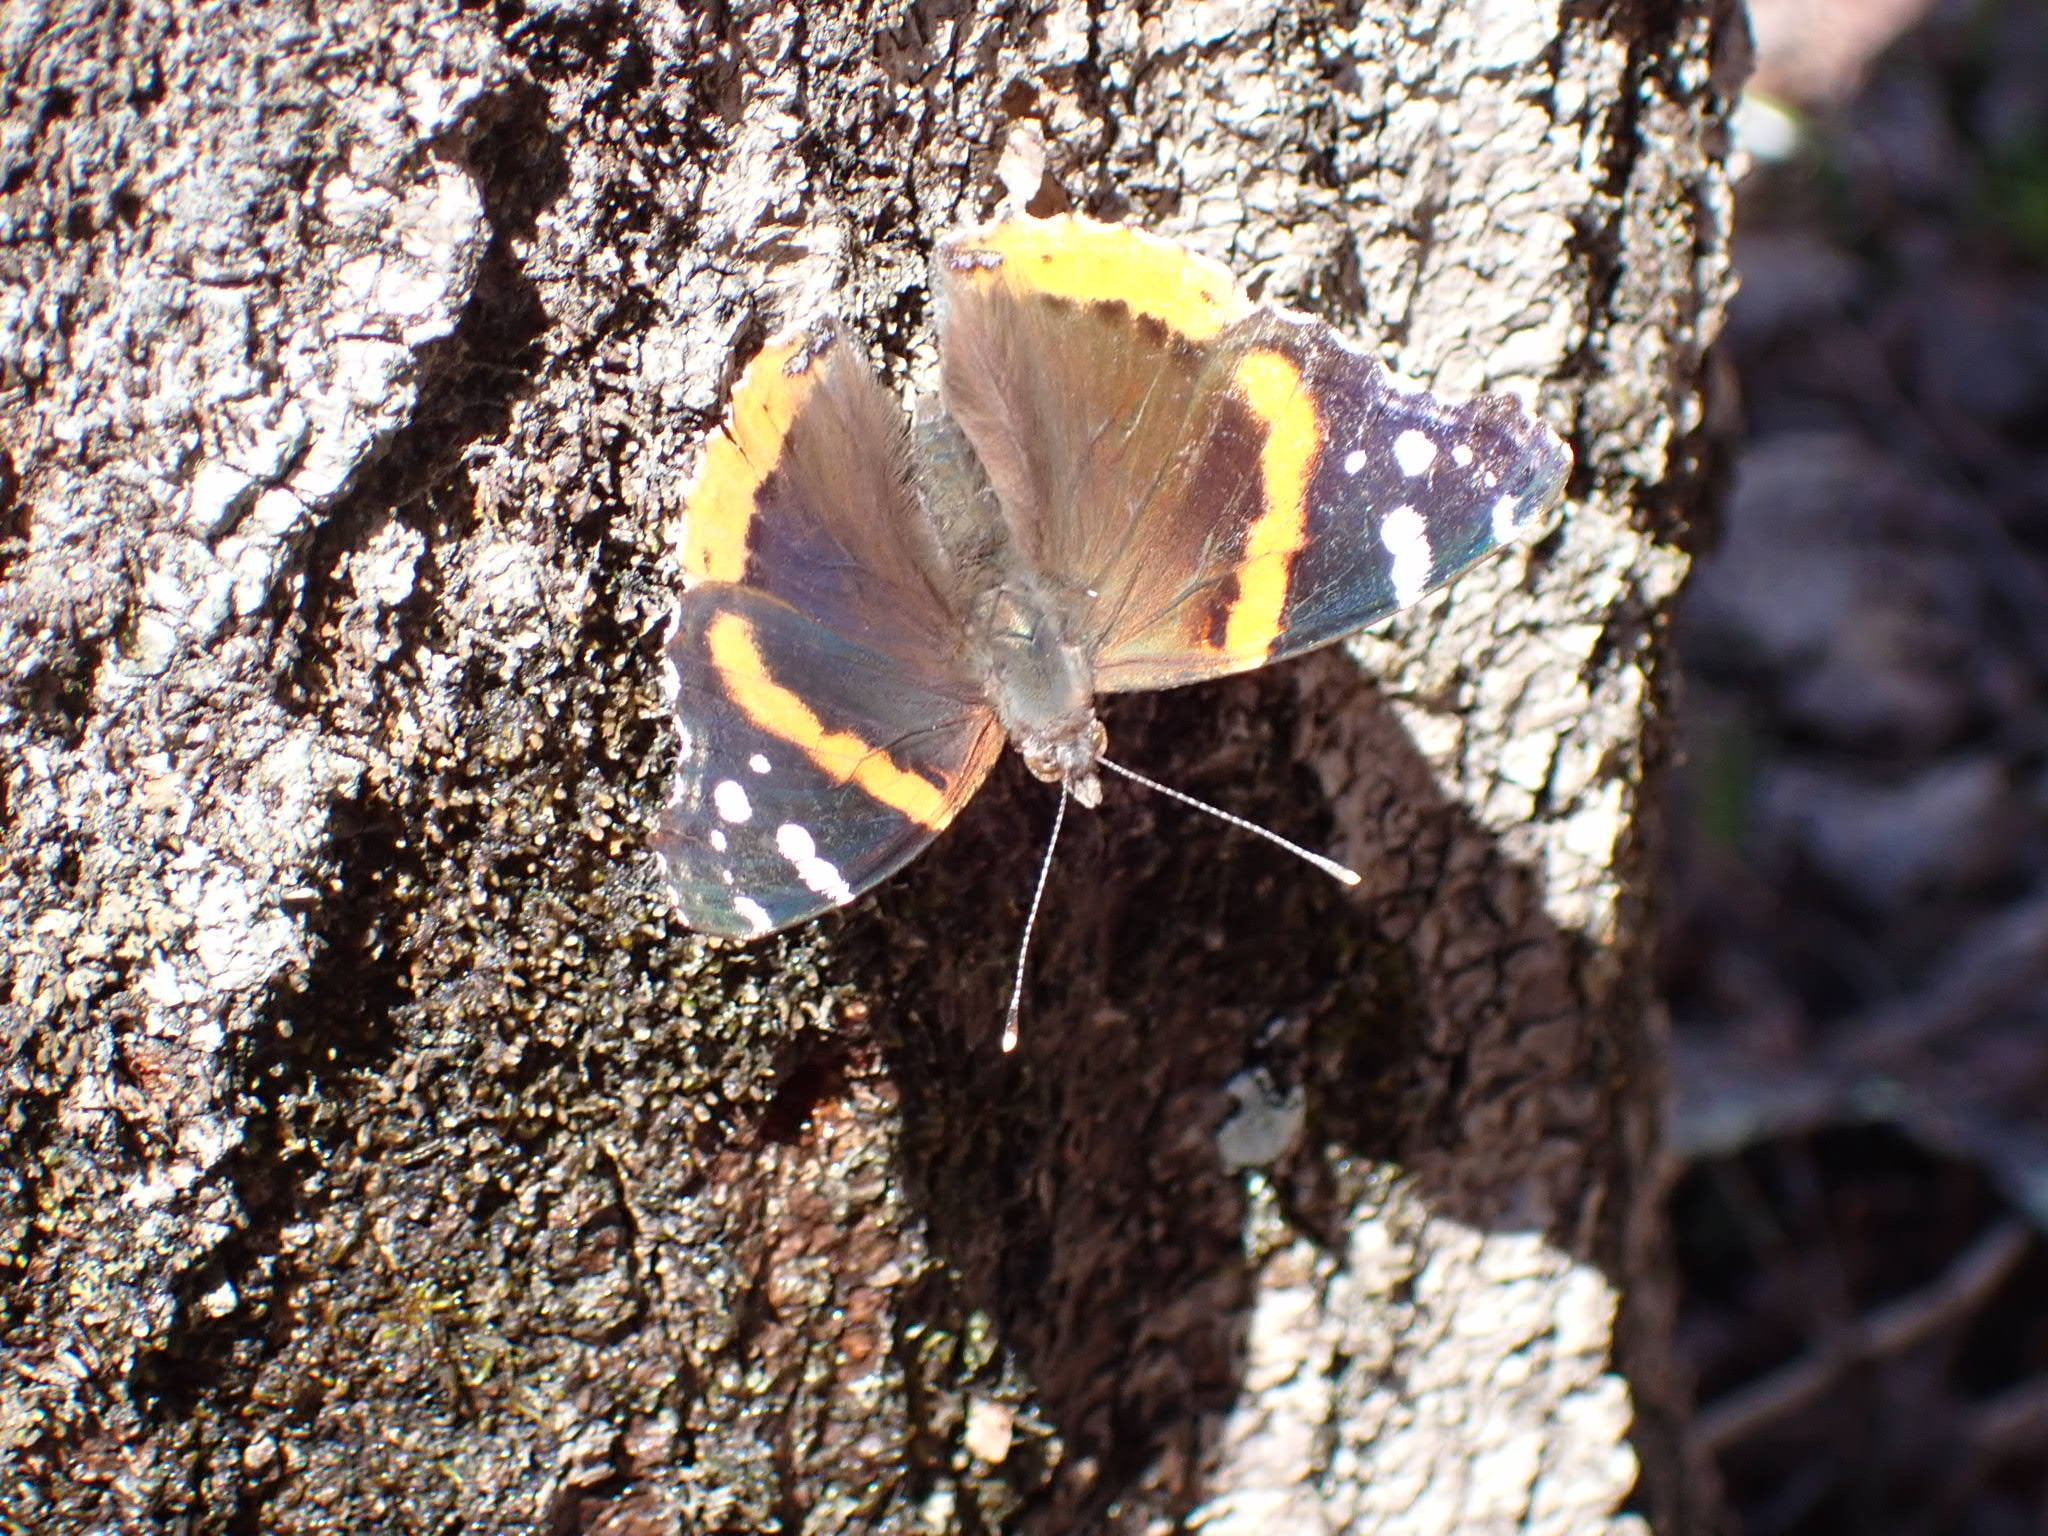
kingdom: Animalia
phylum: Arthropoda
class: Insecta
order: Lepidoptera
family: Nymphalidae
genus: Vanessa
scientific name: Vanessa atalanta
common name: Red admiral
